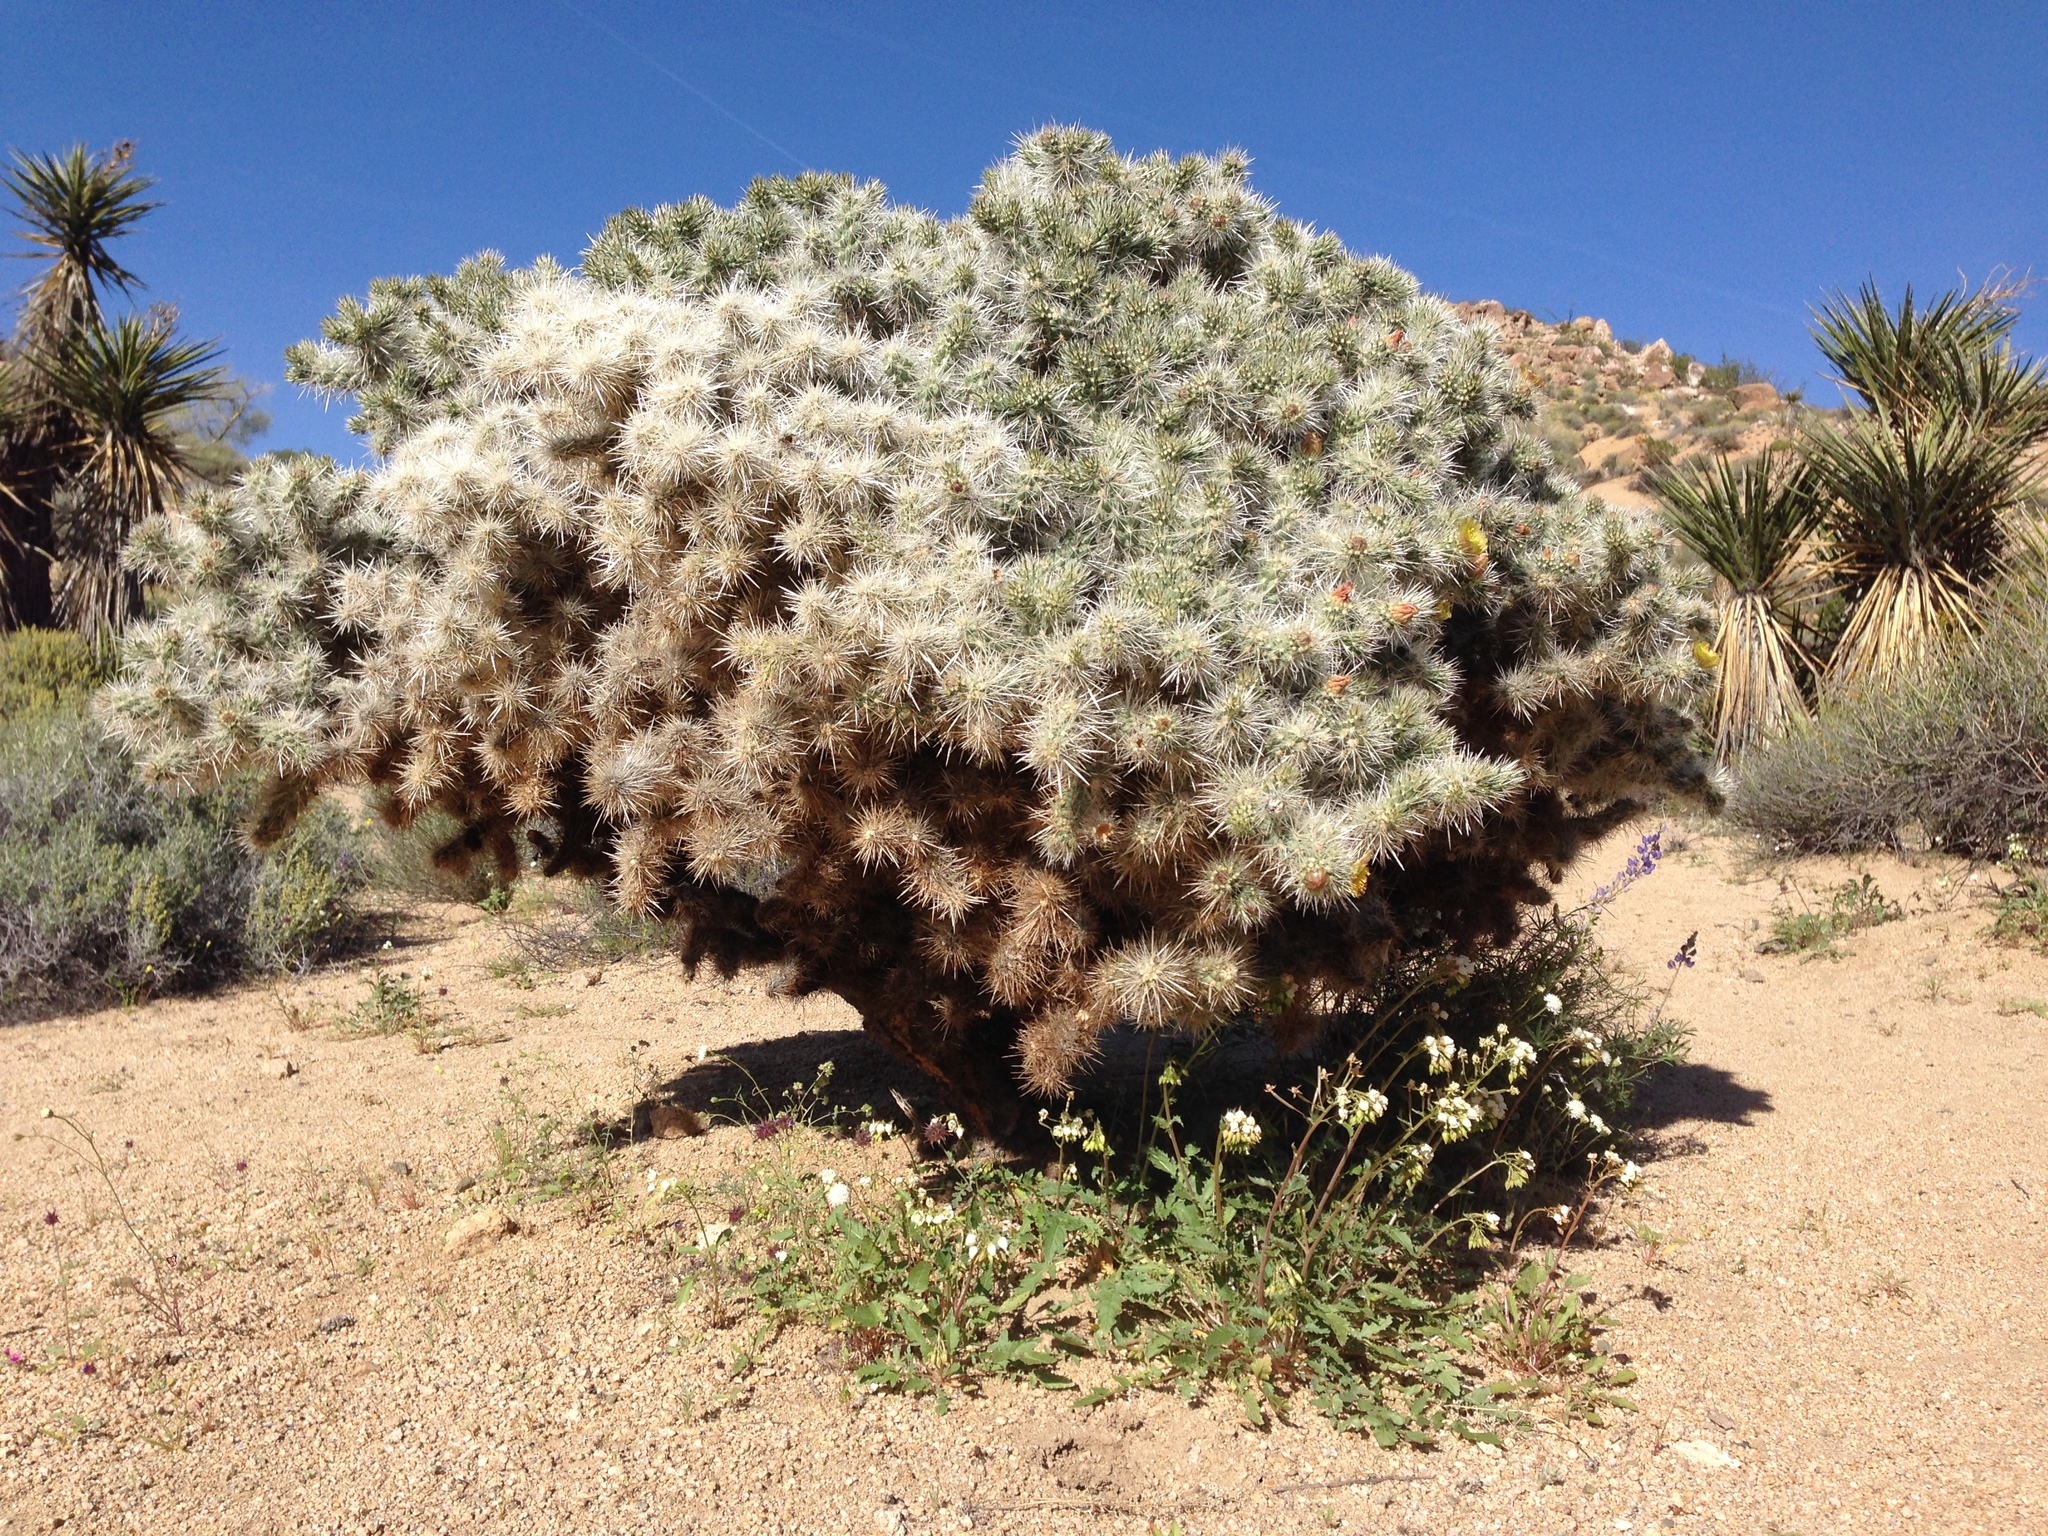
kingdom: Plantae
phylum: Tracheophyta
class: Magnoliopsida
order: Caryophyllales
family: Cactaceae
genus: Cylindropuntia
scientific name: Cylindropuntia echinocarpa
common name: Ground cholla
